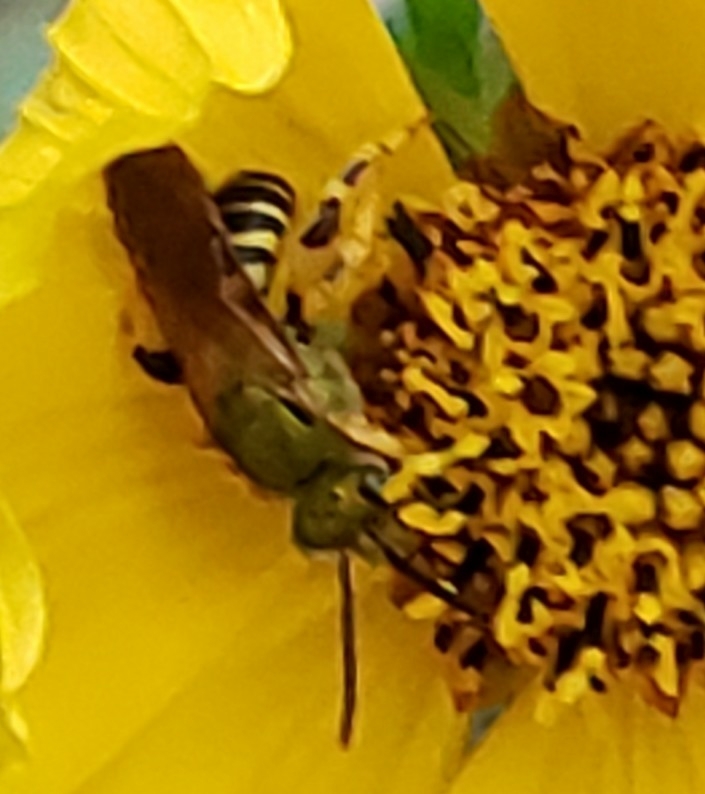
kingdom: Animalia
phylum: Arthropoda
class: Insecta
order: Hymenoptera
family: Halictidae
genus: Agapostemon
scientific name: Agapostemon splendens
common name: Brown-winged striped sweat bee
